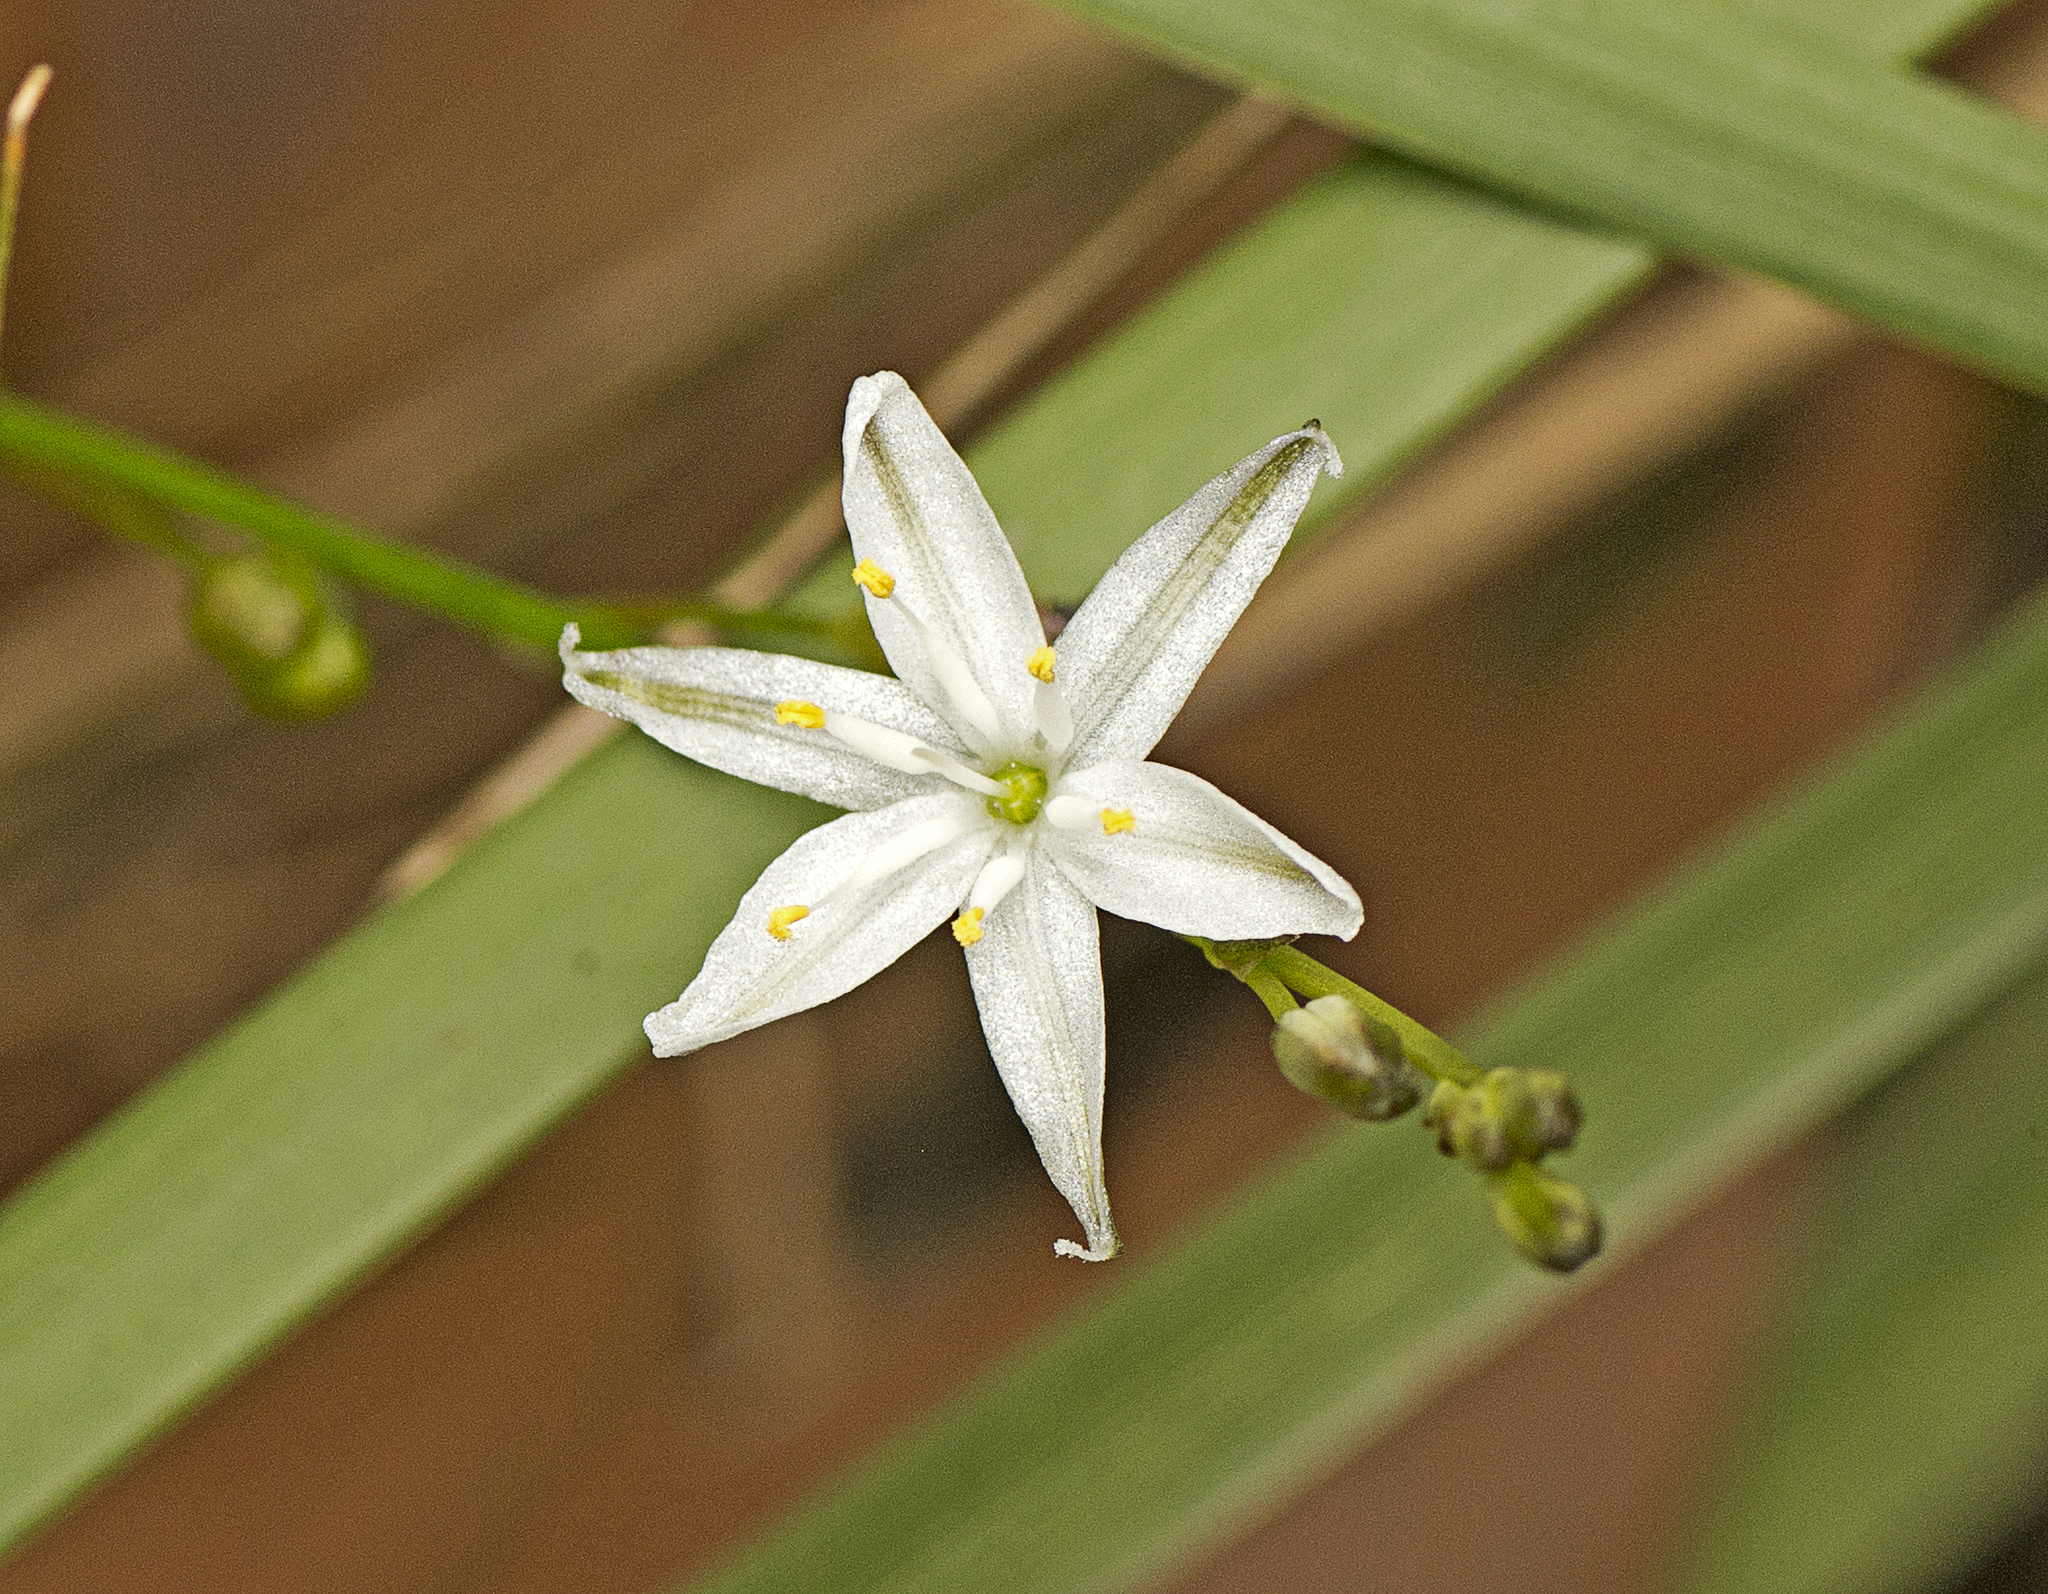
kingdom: Plantae
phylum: Tracheophyta
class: Liliopsida
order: Asparagales
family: Asphodelaceae
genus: Caesia
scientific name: Caesia parviflora
